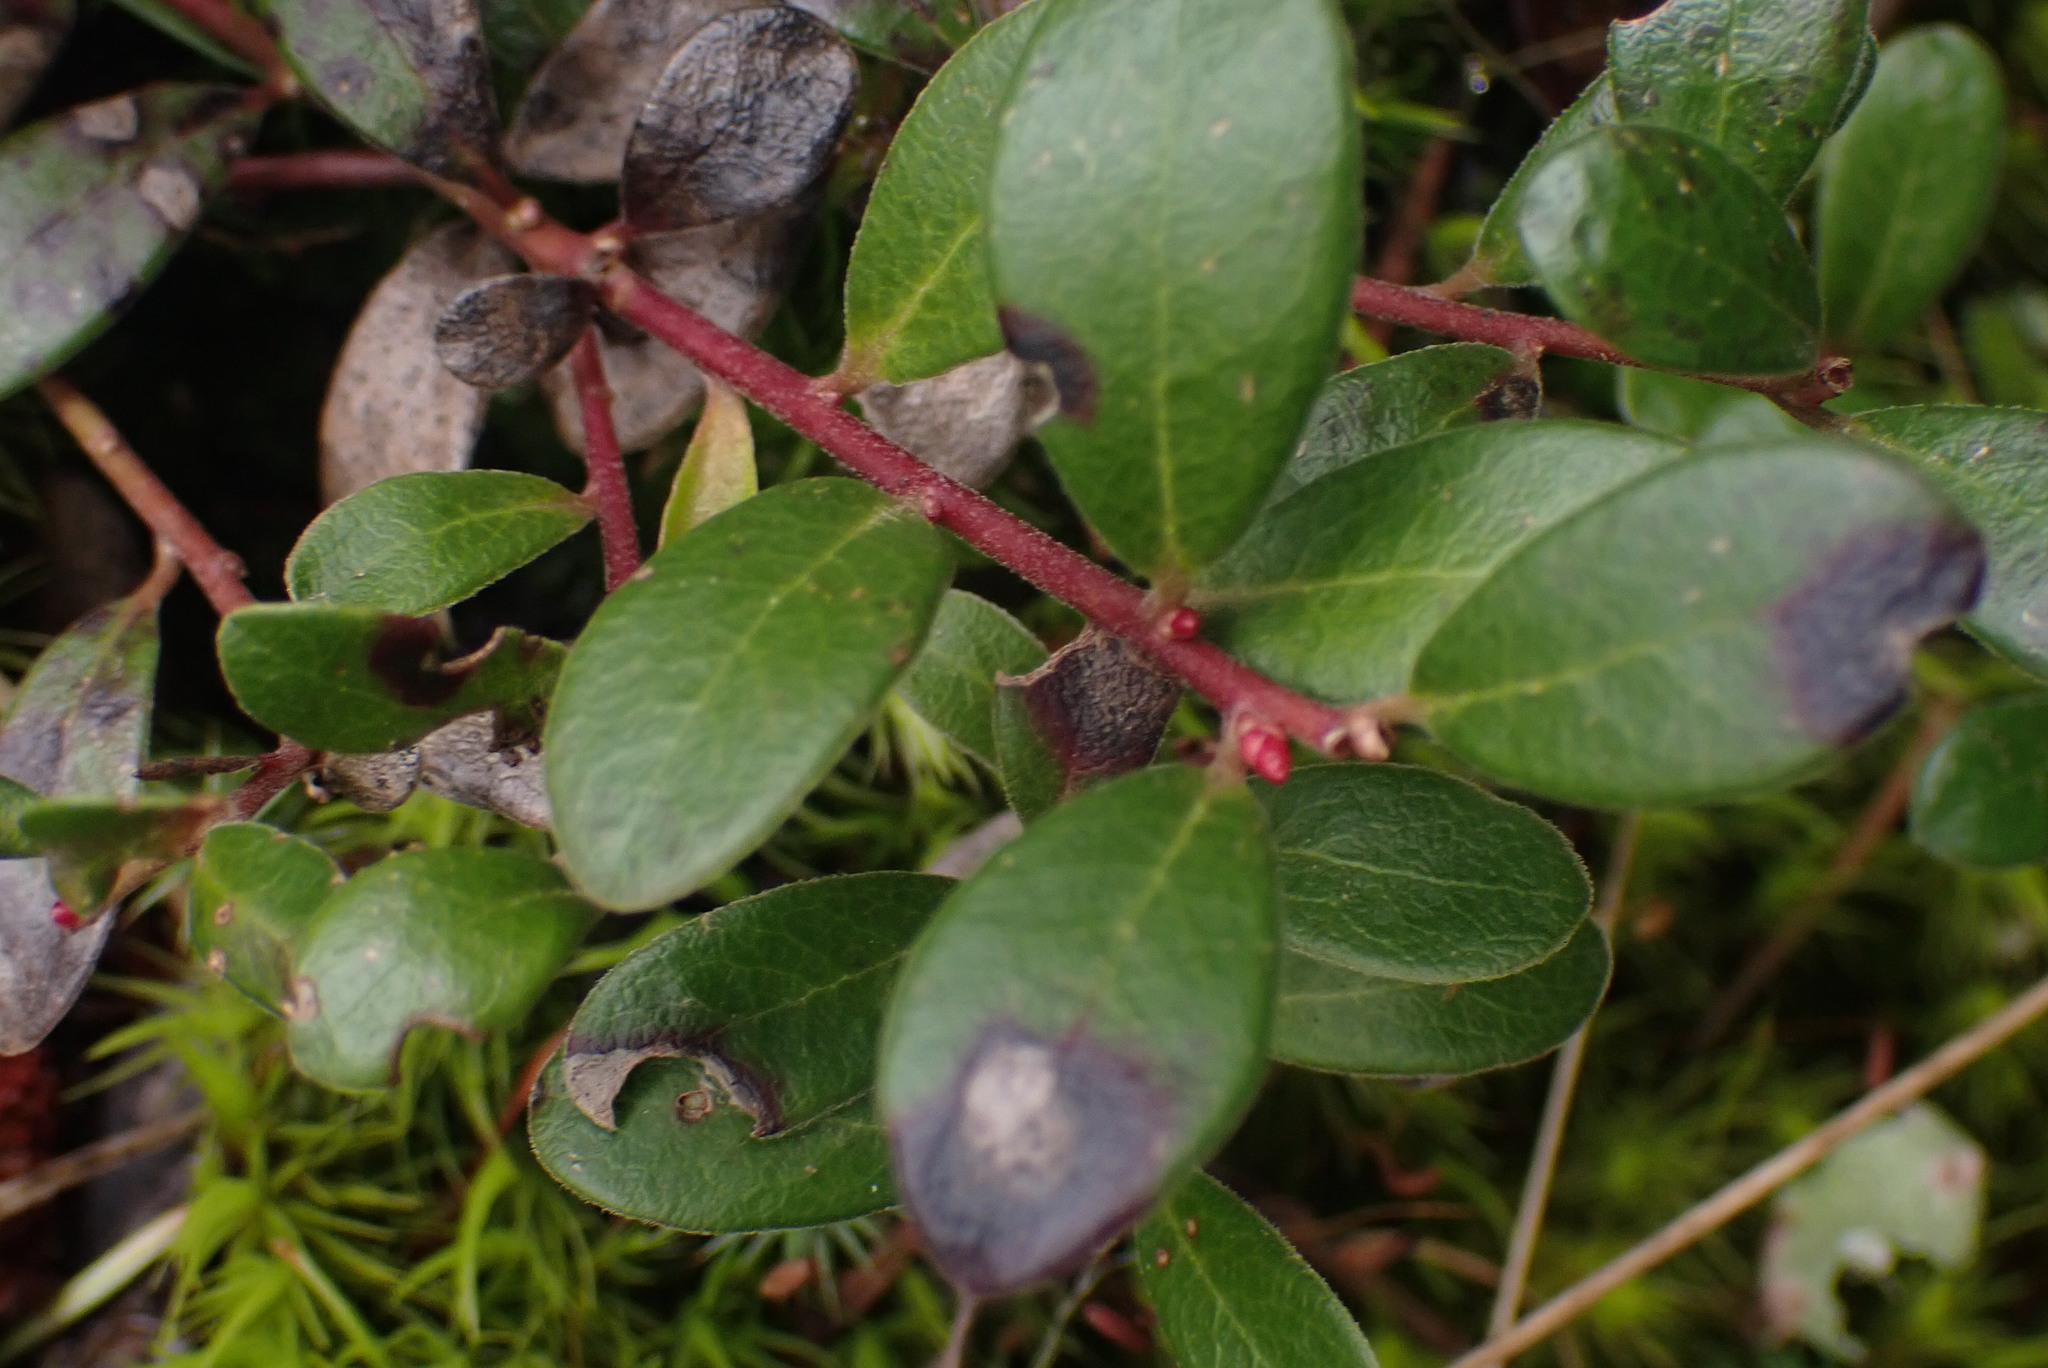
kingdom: Plantae
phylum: Tracheophyta
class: Magnoliopsida
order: Ericales
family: Ericaceae
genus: Arctostaphylos
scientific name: Arctostaphylos uva-ursi
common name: Bearberry
